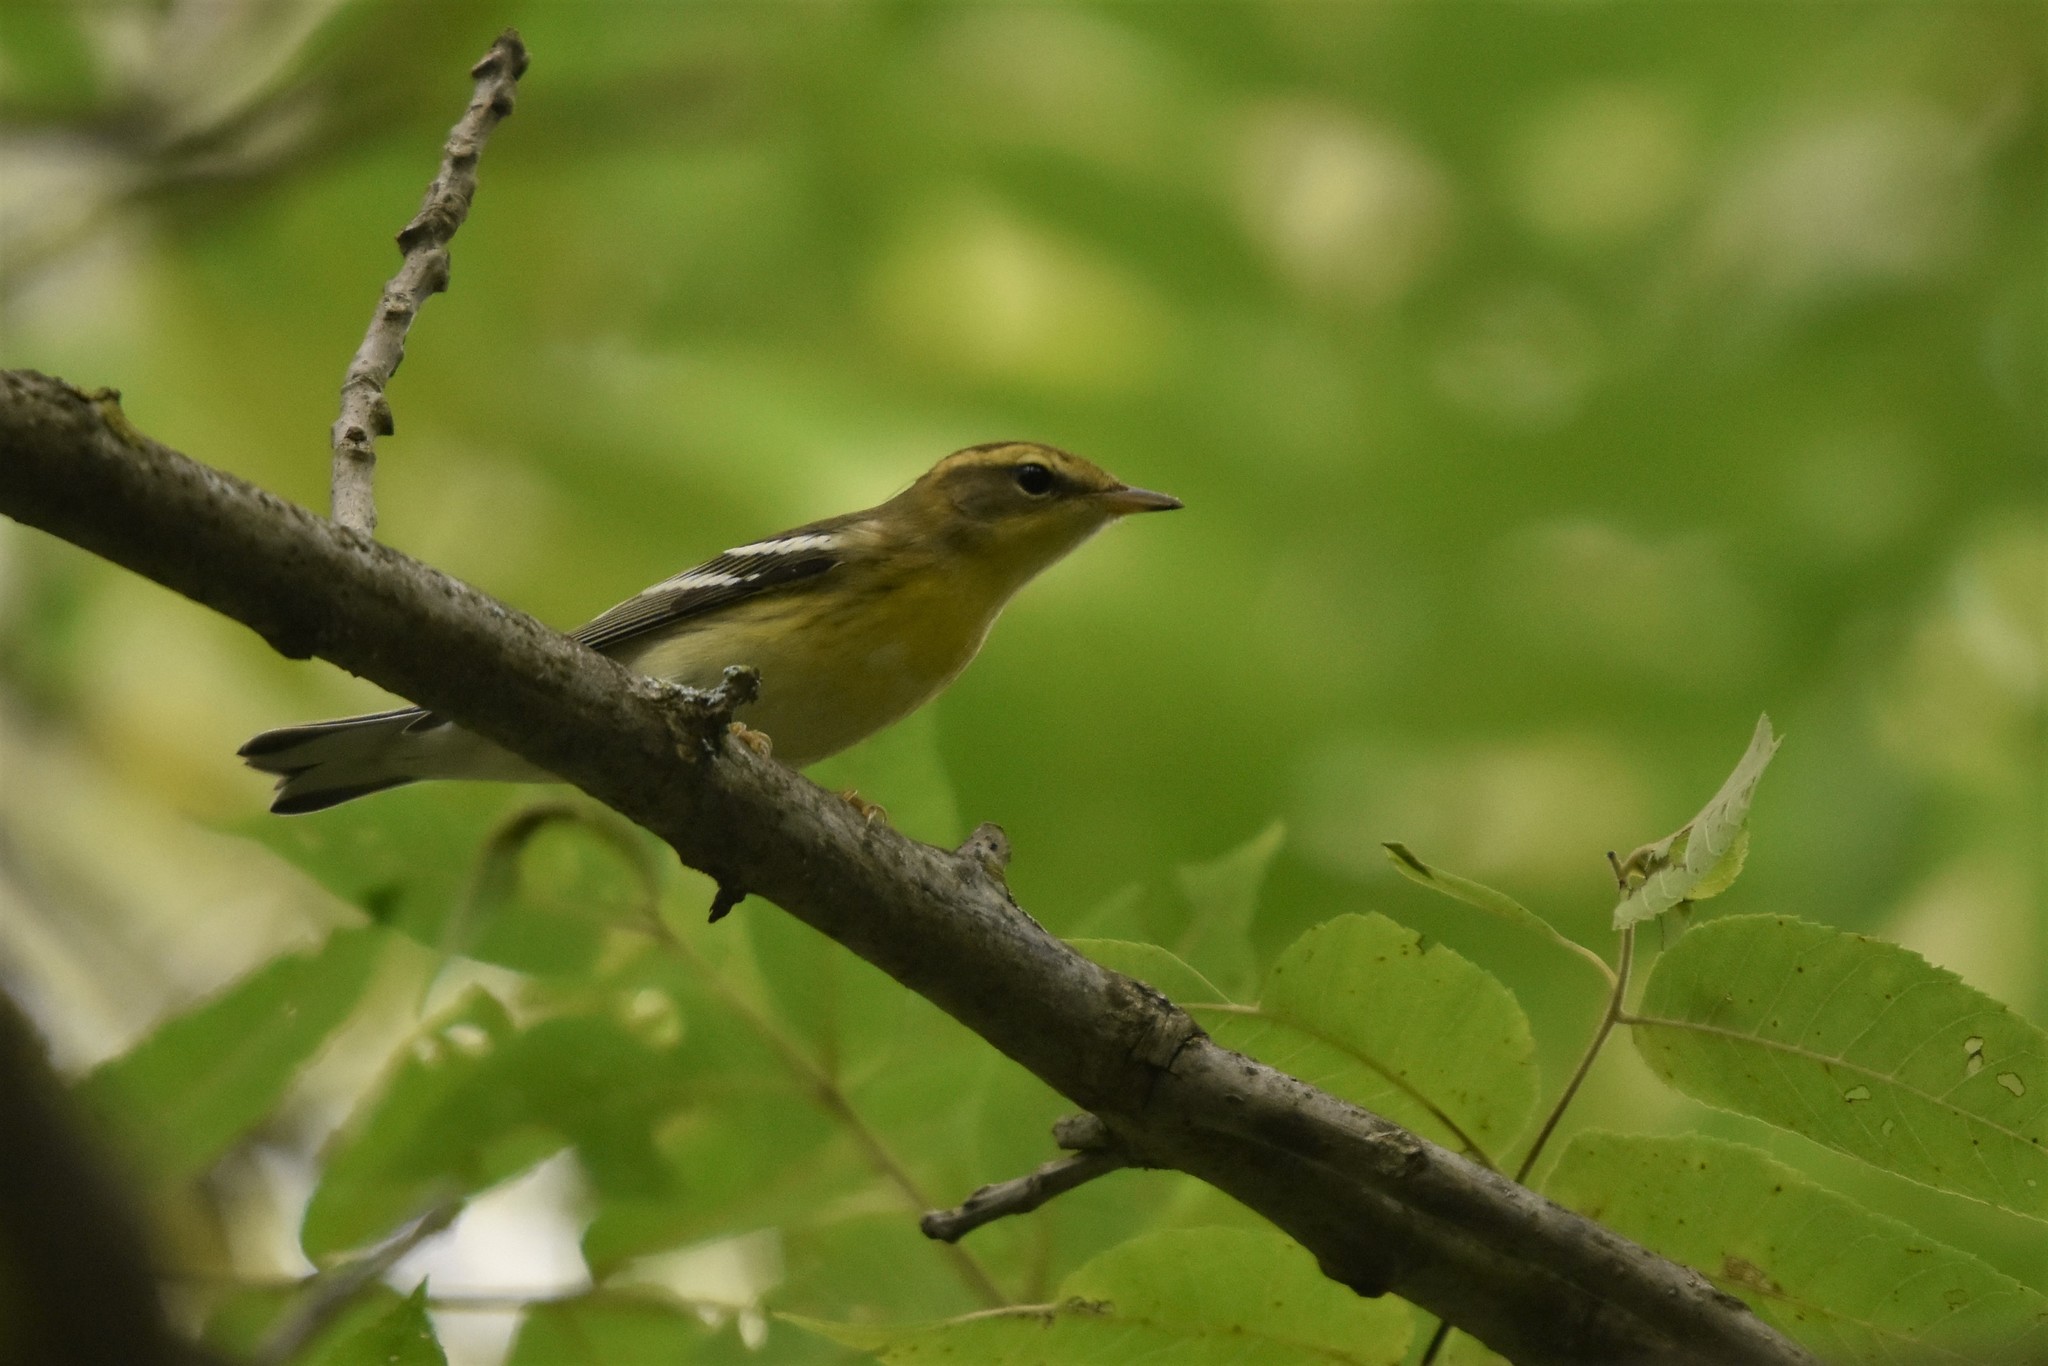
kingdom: Animalia
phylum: Chordata
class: Aves
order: Passeriformes
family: Parulidae
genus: Setophaga
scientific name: Setophaga fusca
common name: Blackburnian warbler
